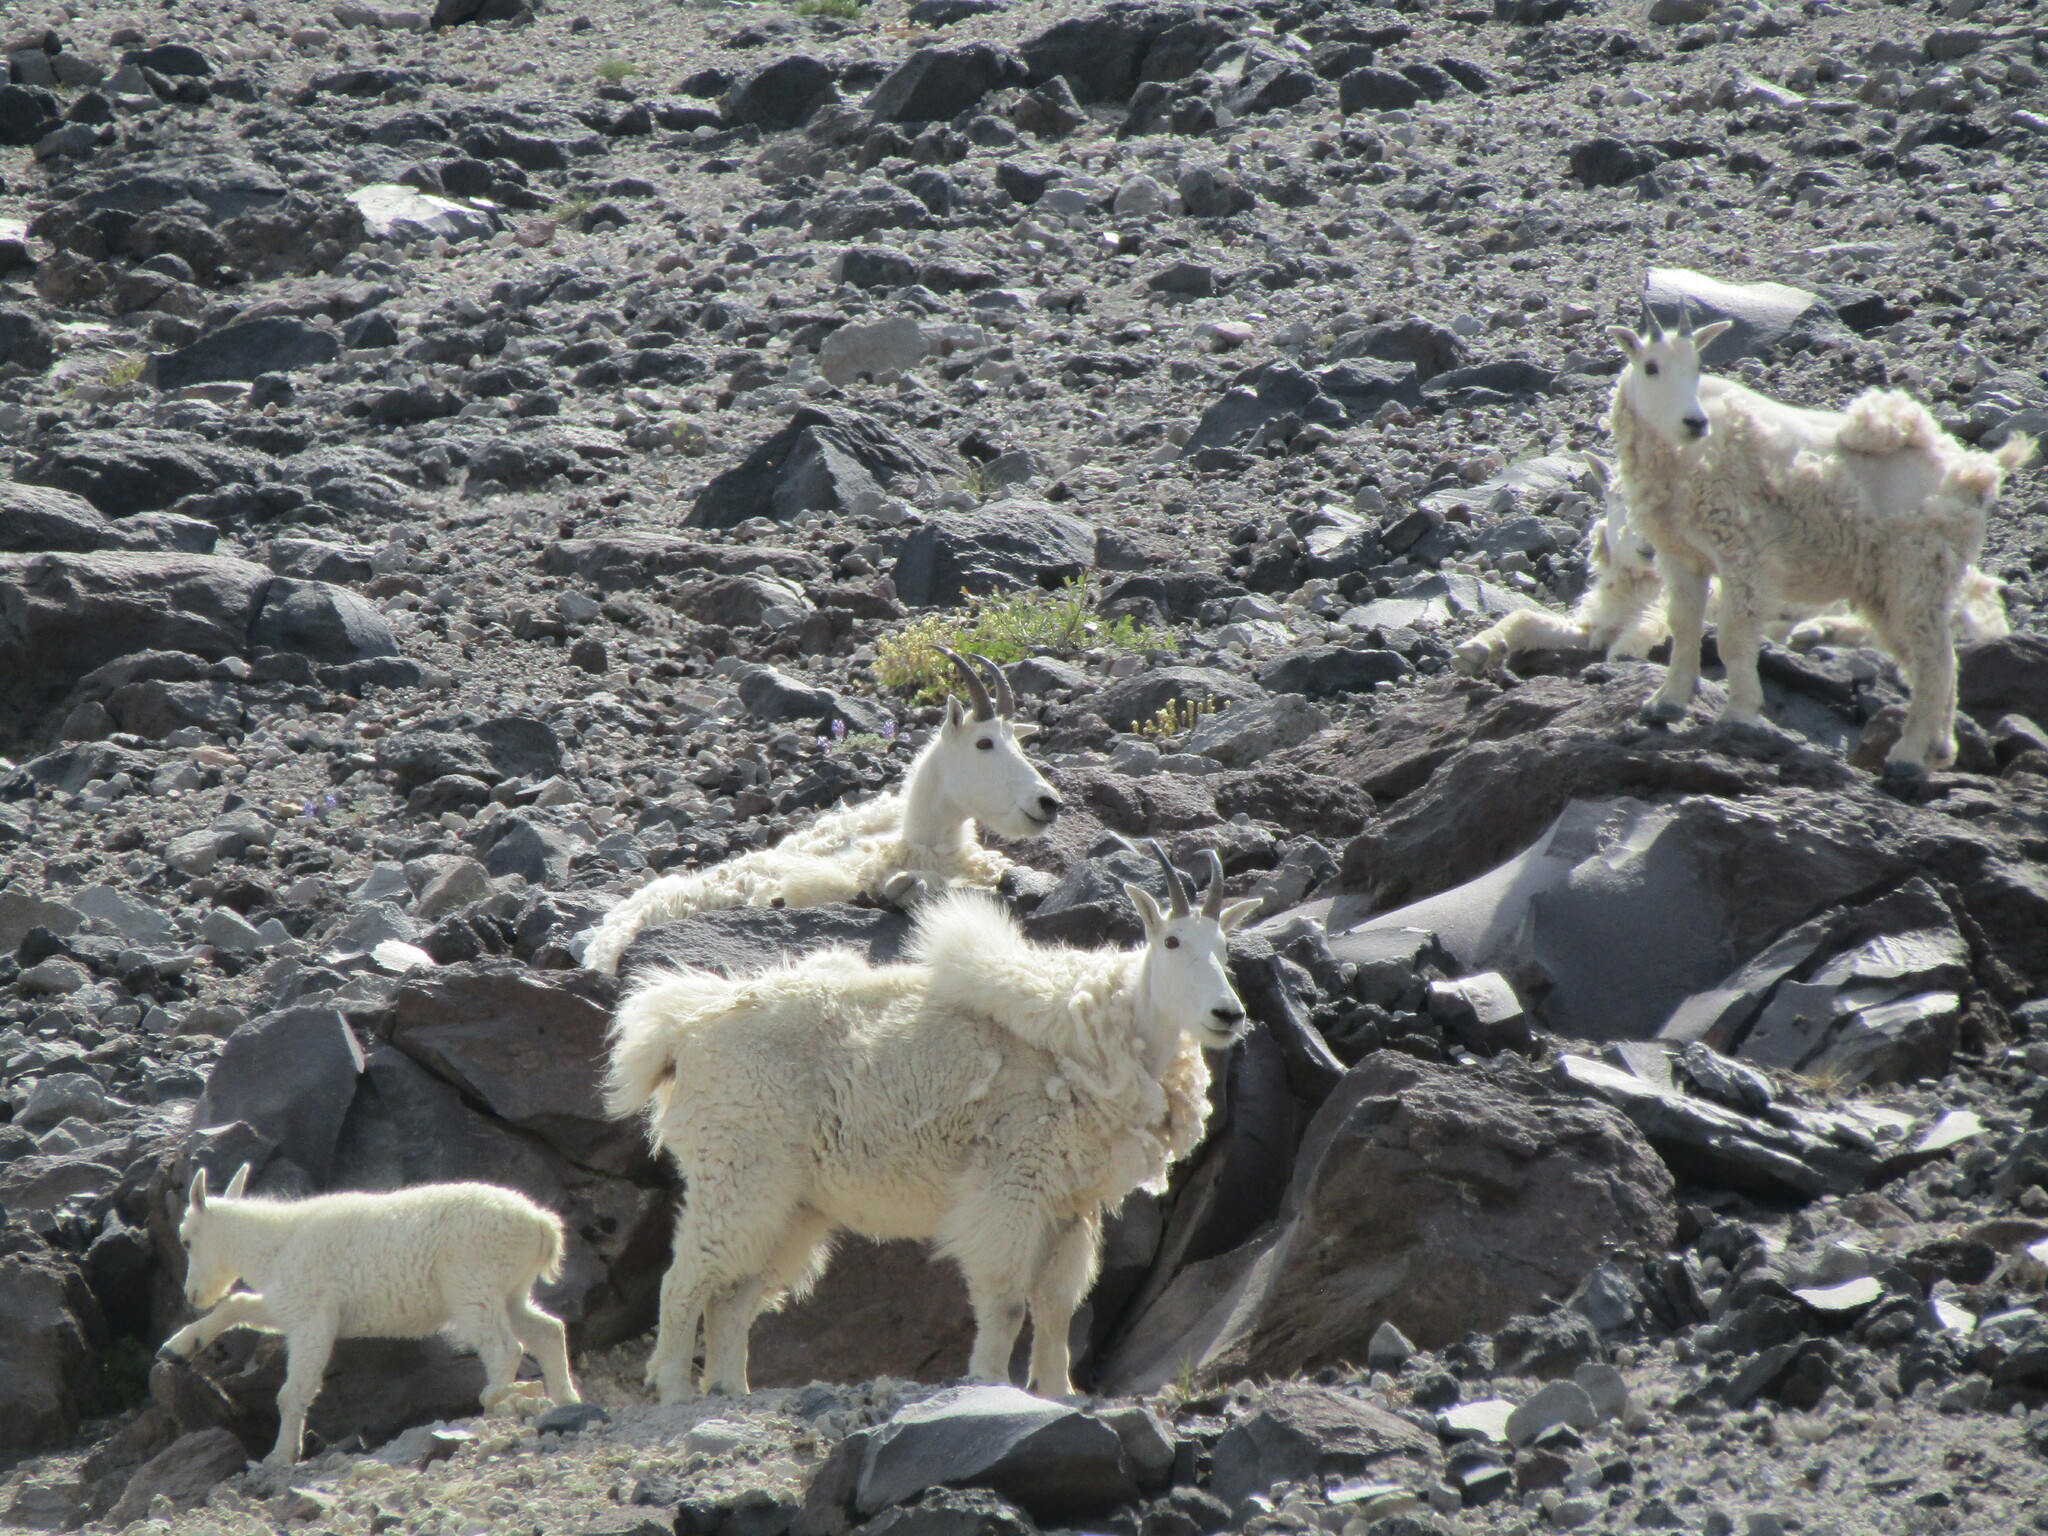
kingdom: Animalia
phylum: Chordata
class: Mammalia
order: Artiodactyla
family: Bovidae
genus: Oreamnos
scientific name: Oreamnos americanus
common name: Mountain goat
